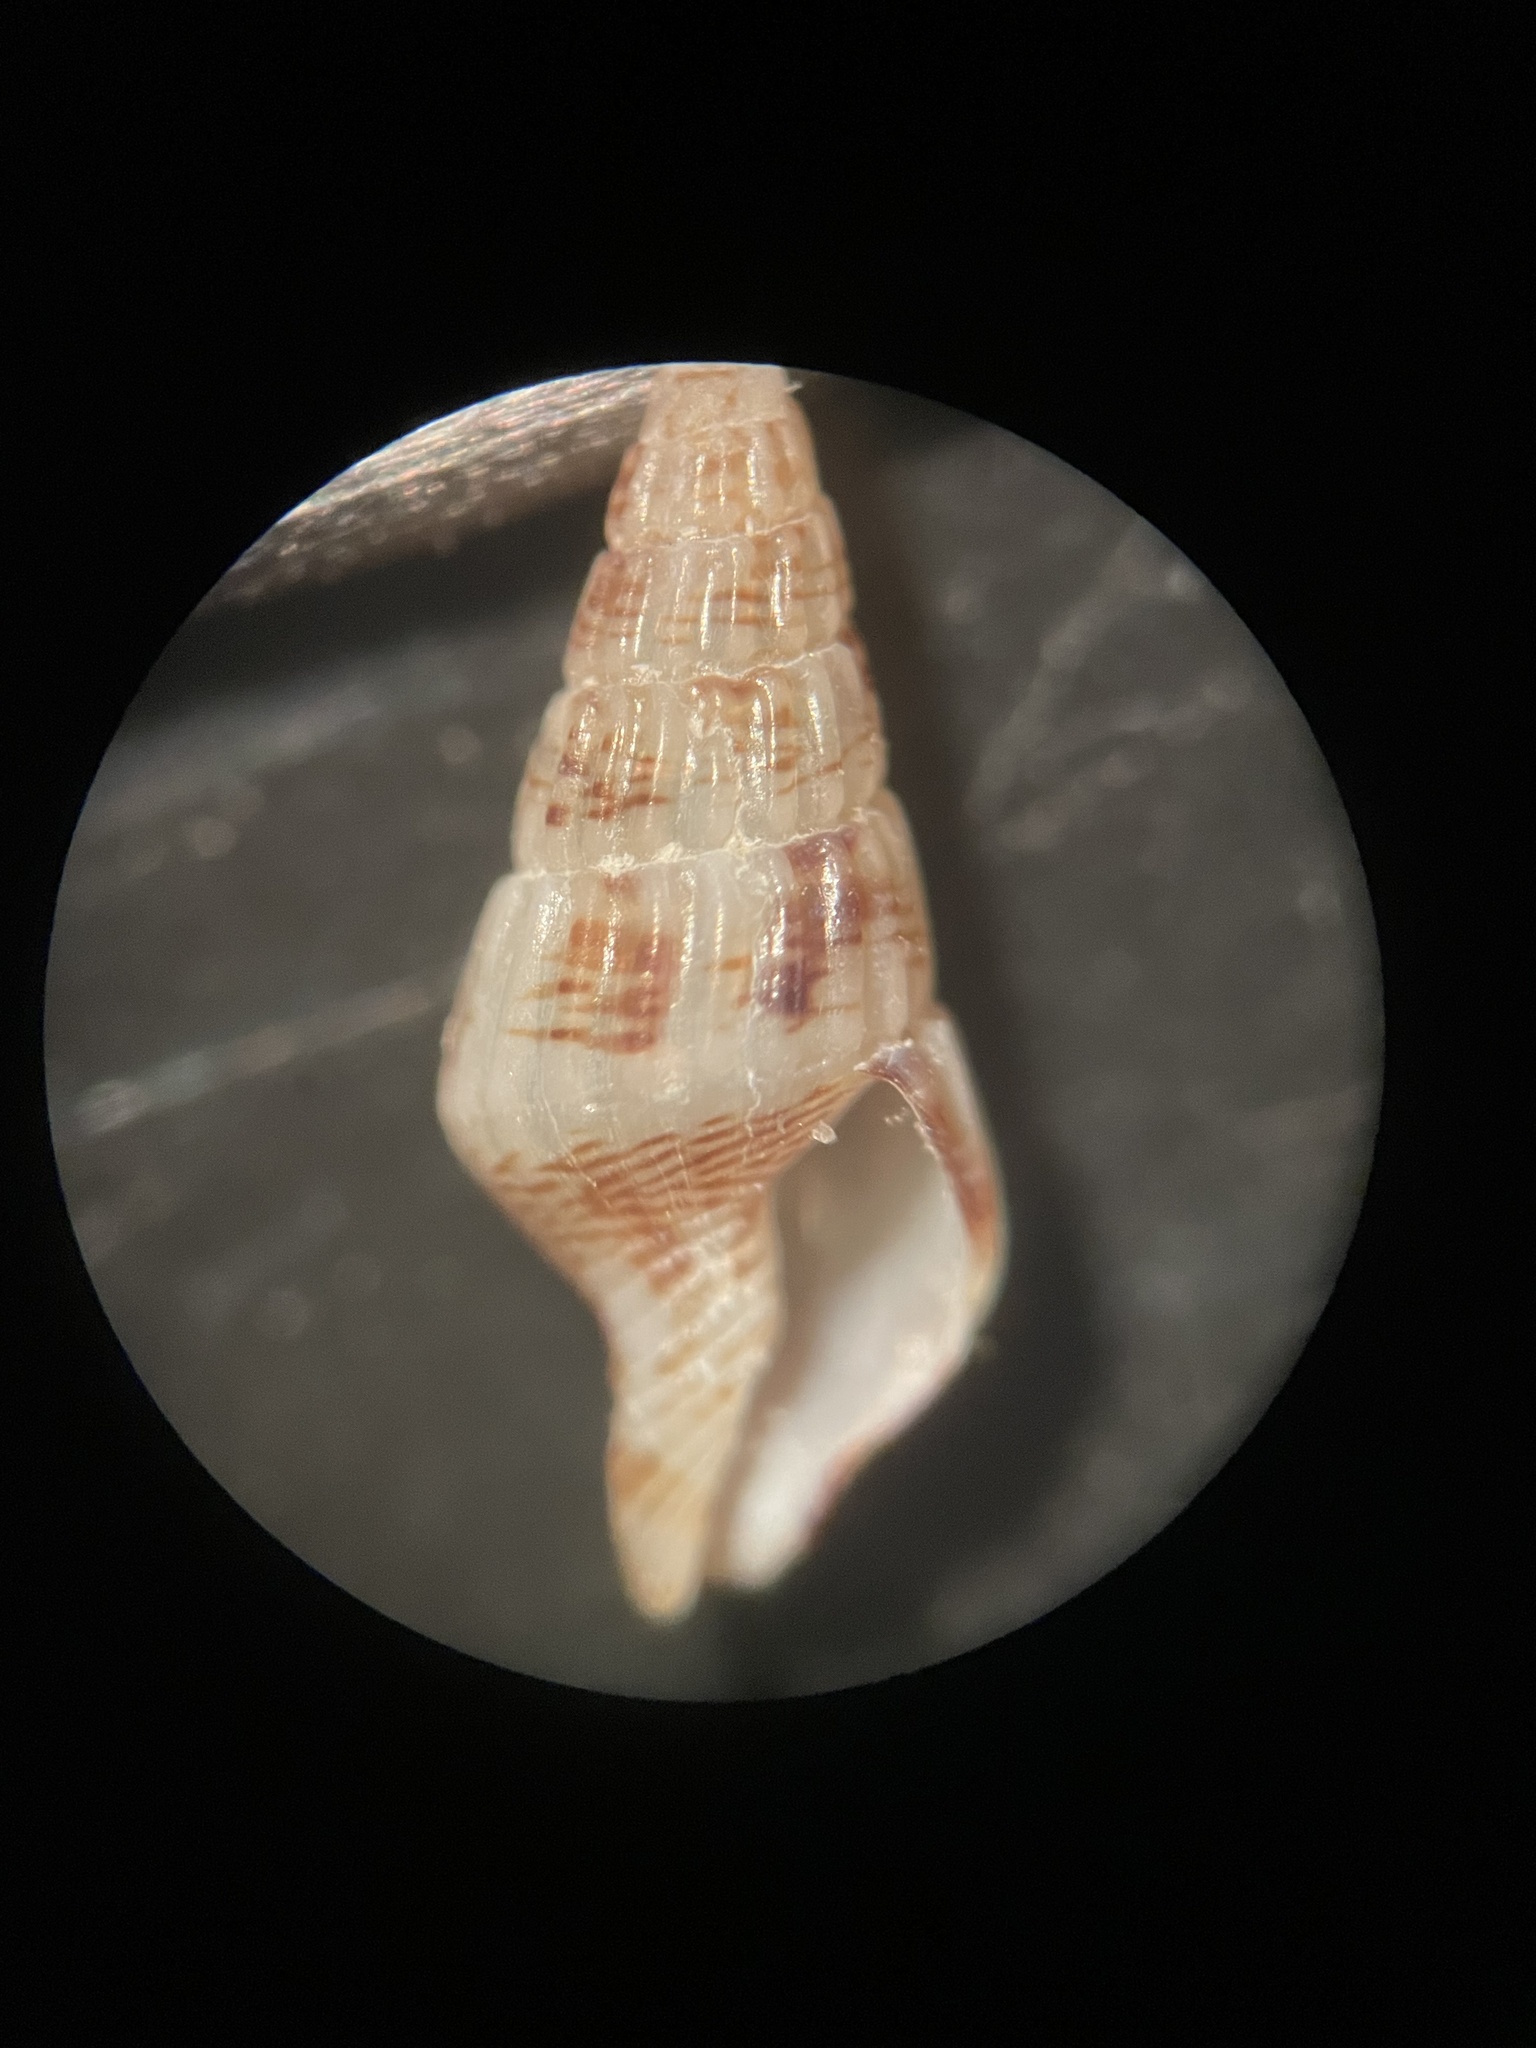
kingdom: Animalia
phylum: Mollusca
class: Gastropoda
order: Neogastropoda
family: Columbellidae
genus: Suturoglypta
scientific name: Suturoglypta iontha
